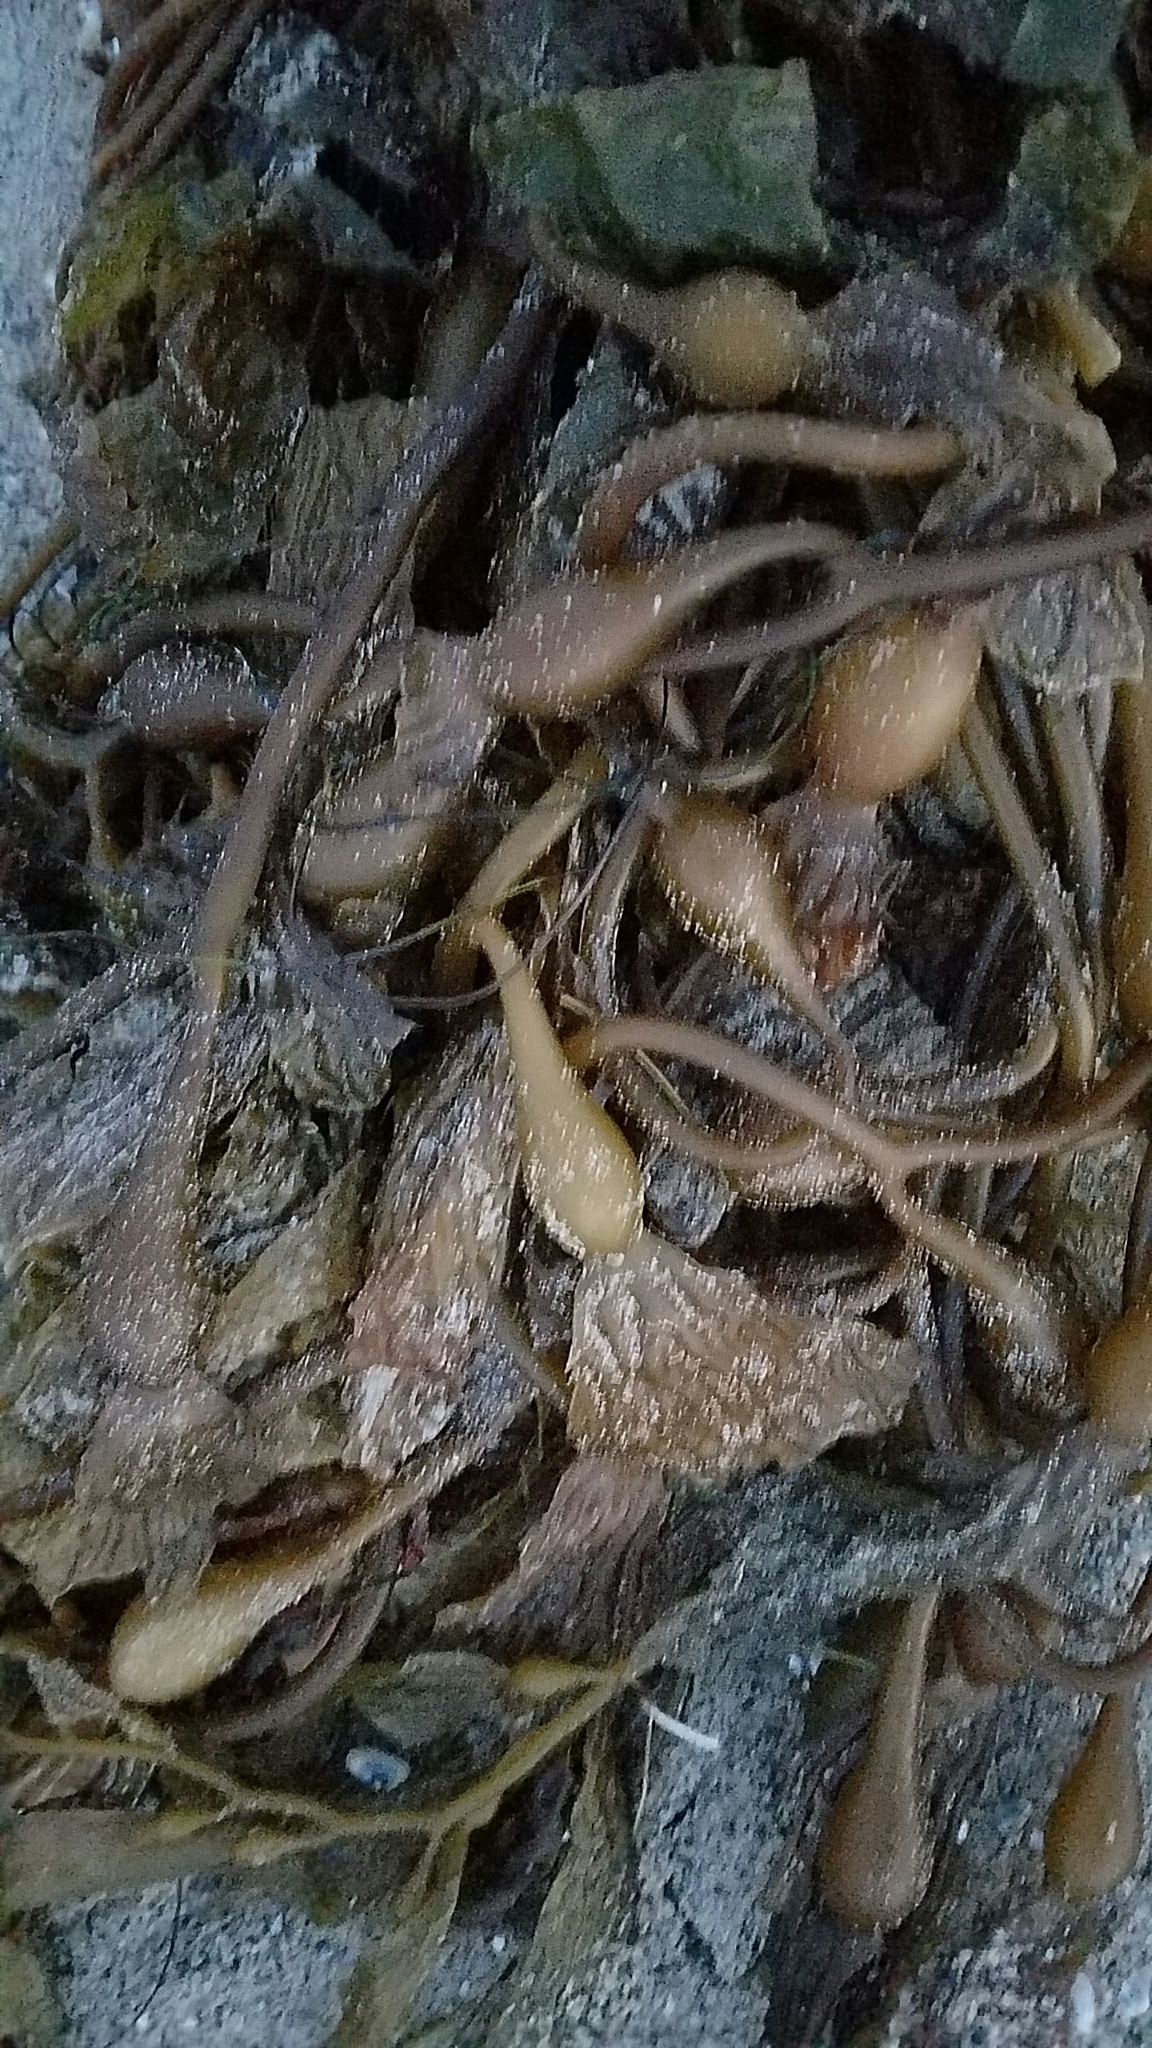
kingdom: Chromista
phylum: Ochrophyta
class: Phaeophyceae
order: Laminariales
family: Laminariaceae
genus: Macrocystis
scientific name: Macrocystis pyrifera
